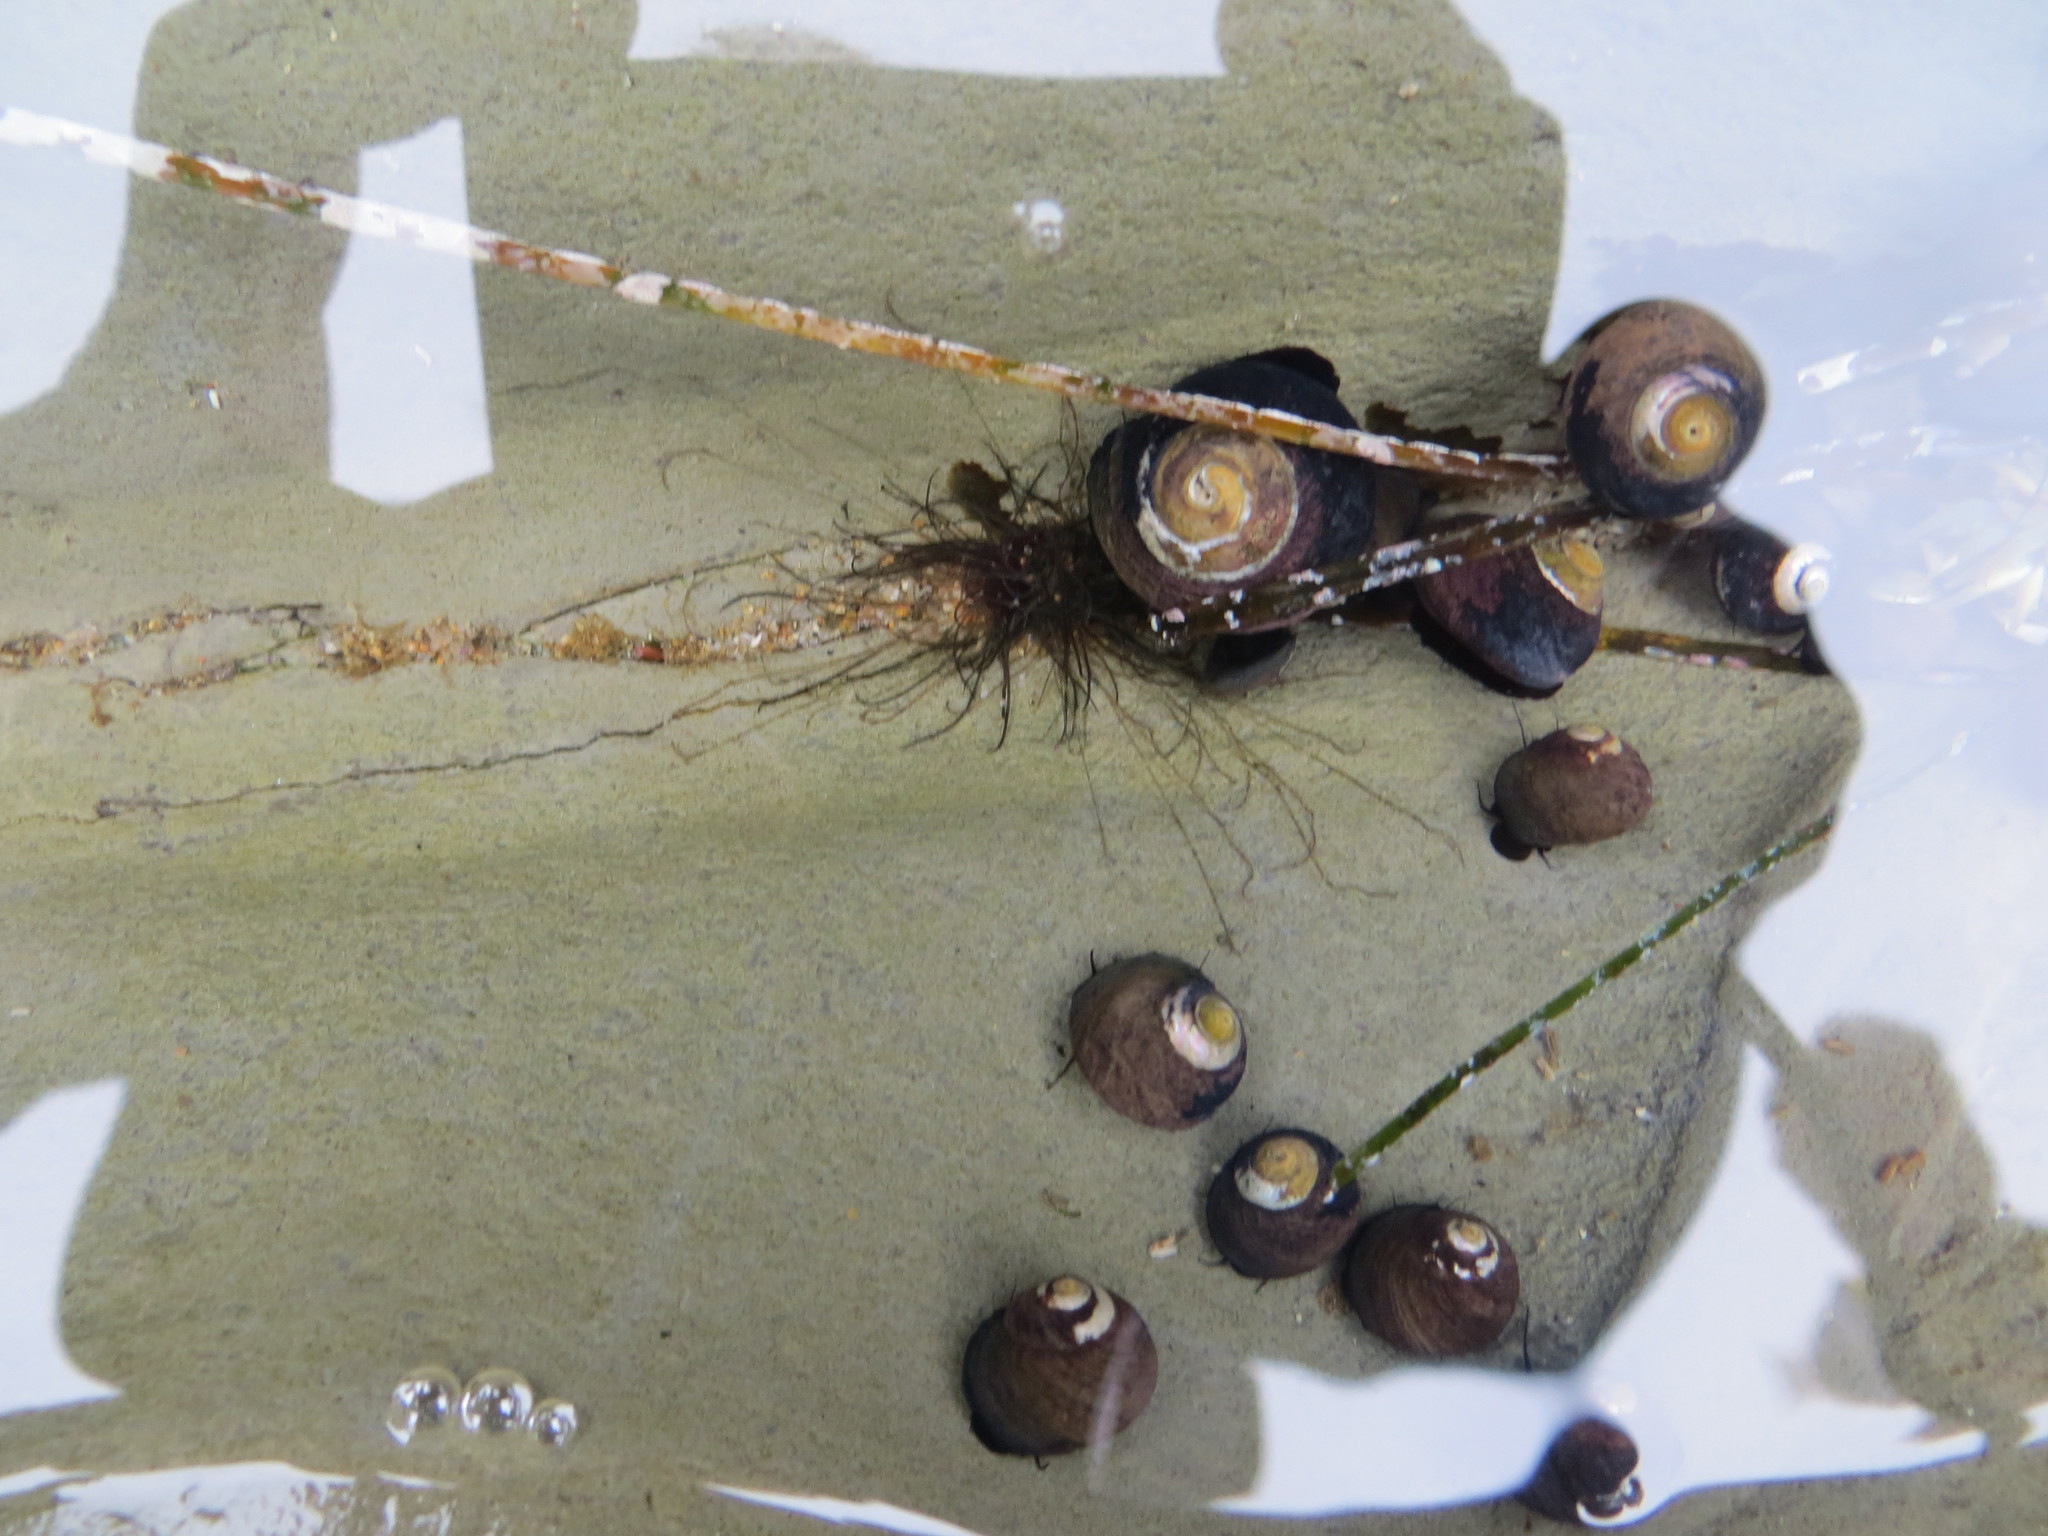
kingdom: Animalia
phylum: Mollusca
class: Gastropoda
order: Trochida
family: Tegulidae
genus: Tegula
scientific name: Tegula funebralis
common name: Black tegula
